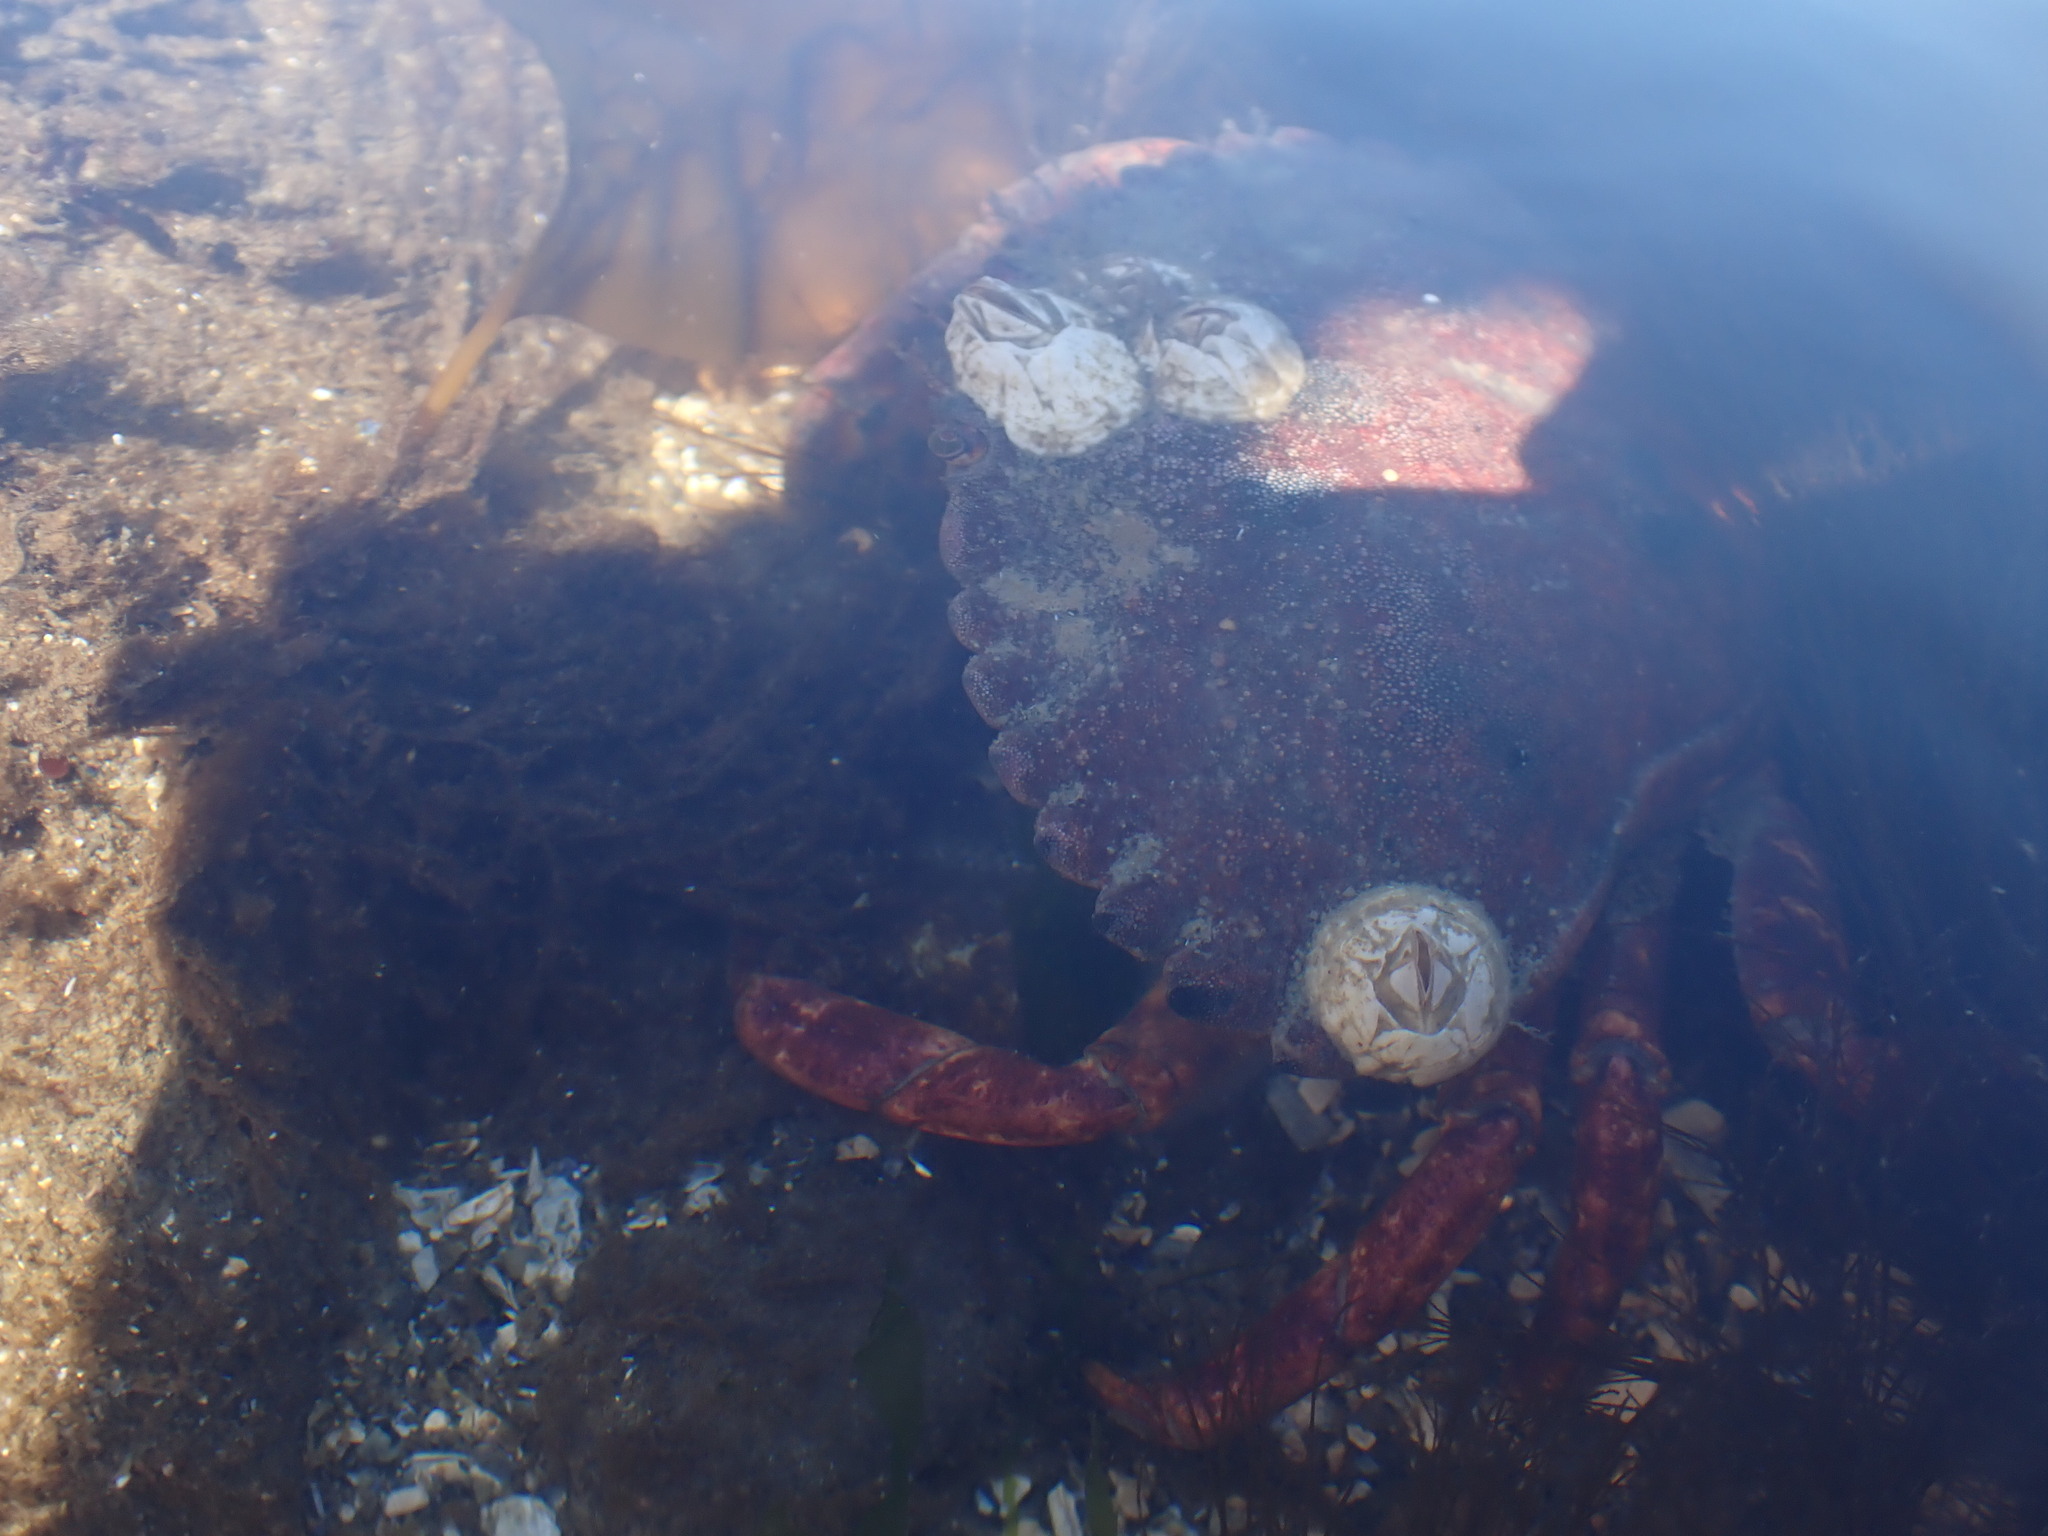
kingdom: Animalia
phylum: Arthropoda
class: Malacostraca
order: Decapoda
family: Cancridae
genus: Cancer
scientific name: Cancer productus
